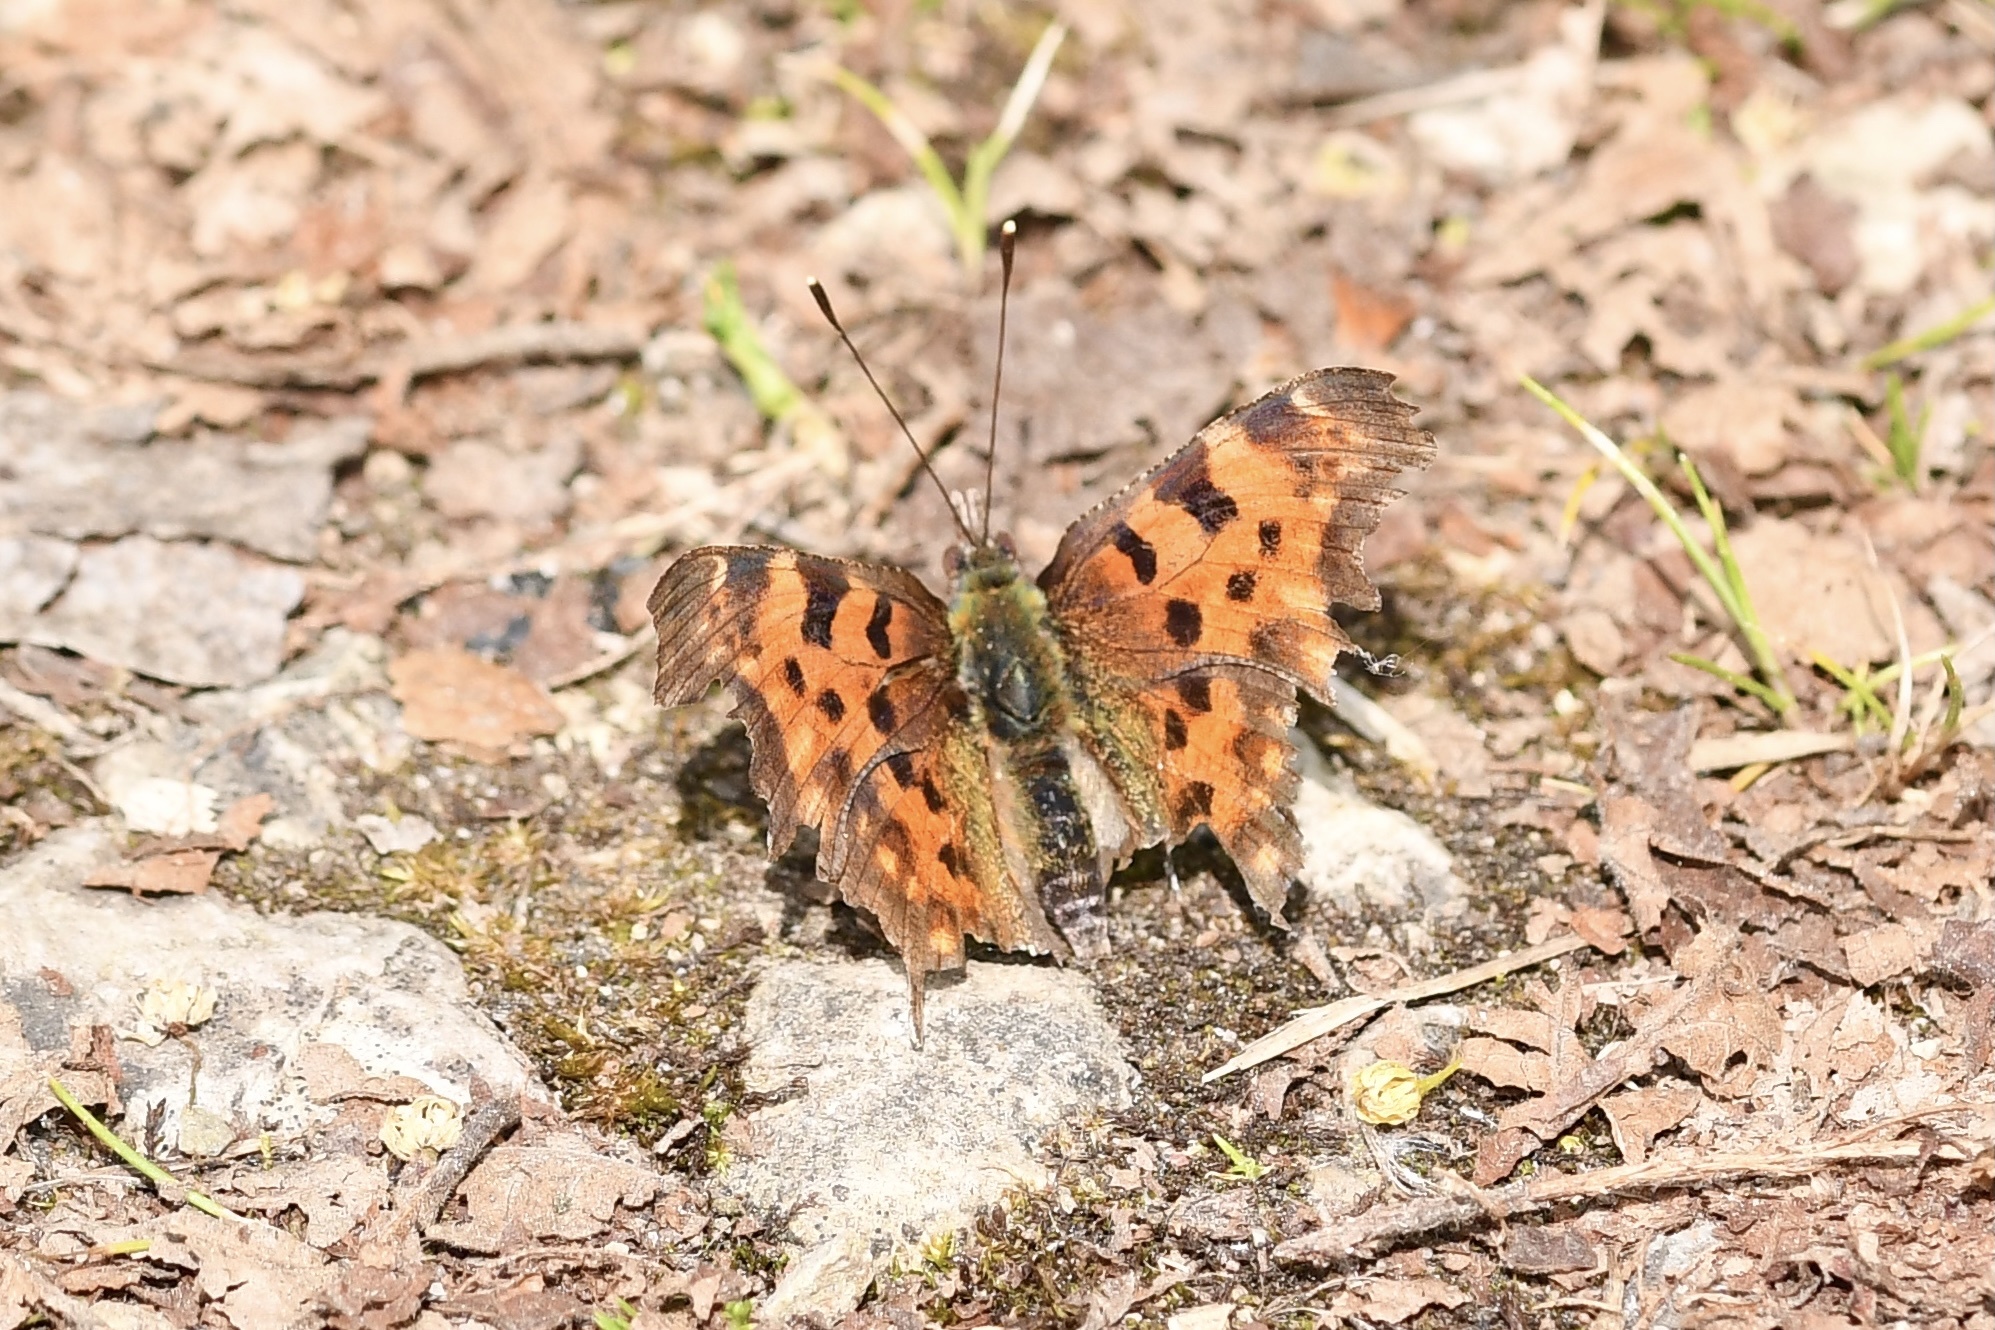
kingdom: Animalia
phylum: Arthropoda
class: Insecta
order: Lepidoptera
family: Nymphalidae
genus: Polygonia
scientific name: Polygonia c-album
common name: Comma
